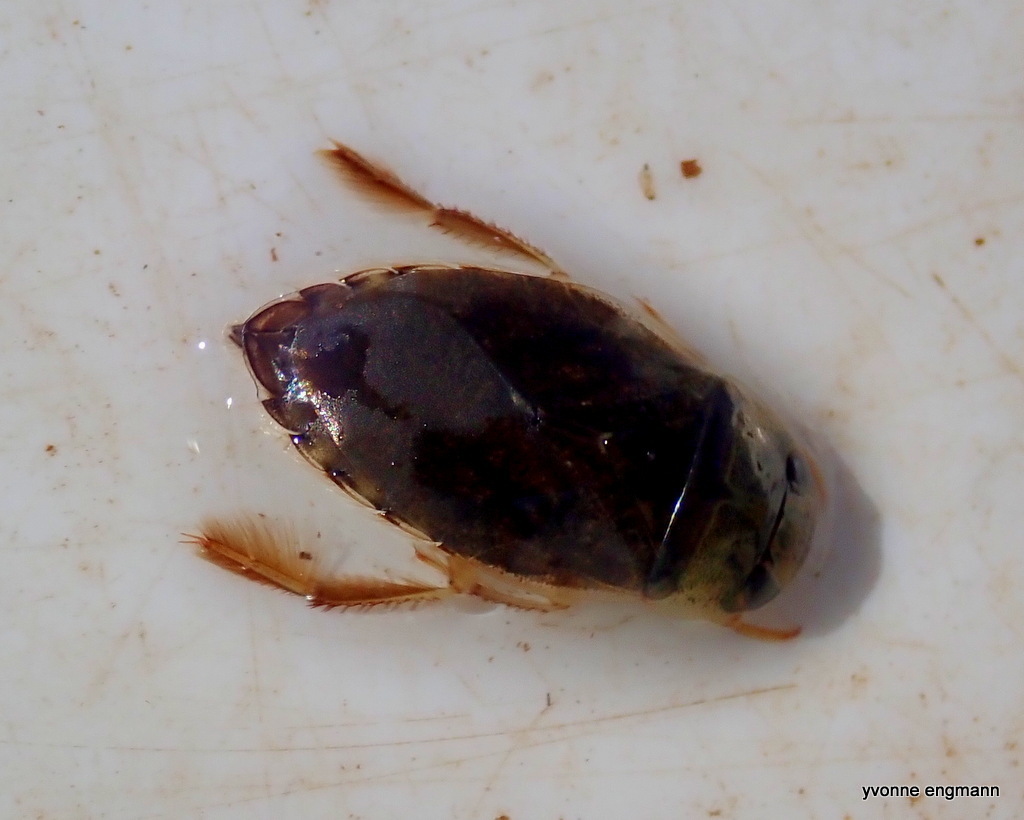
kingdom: Animalia
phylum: Arthropoda
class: Insecta
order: Hemiptera
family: Naucoridae
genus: Ilyocoris
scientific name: Ilyocoris cimicoides
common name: Saucer bugs
